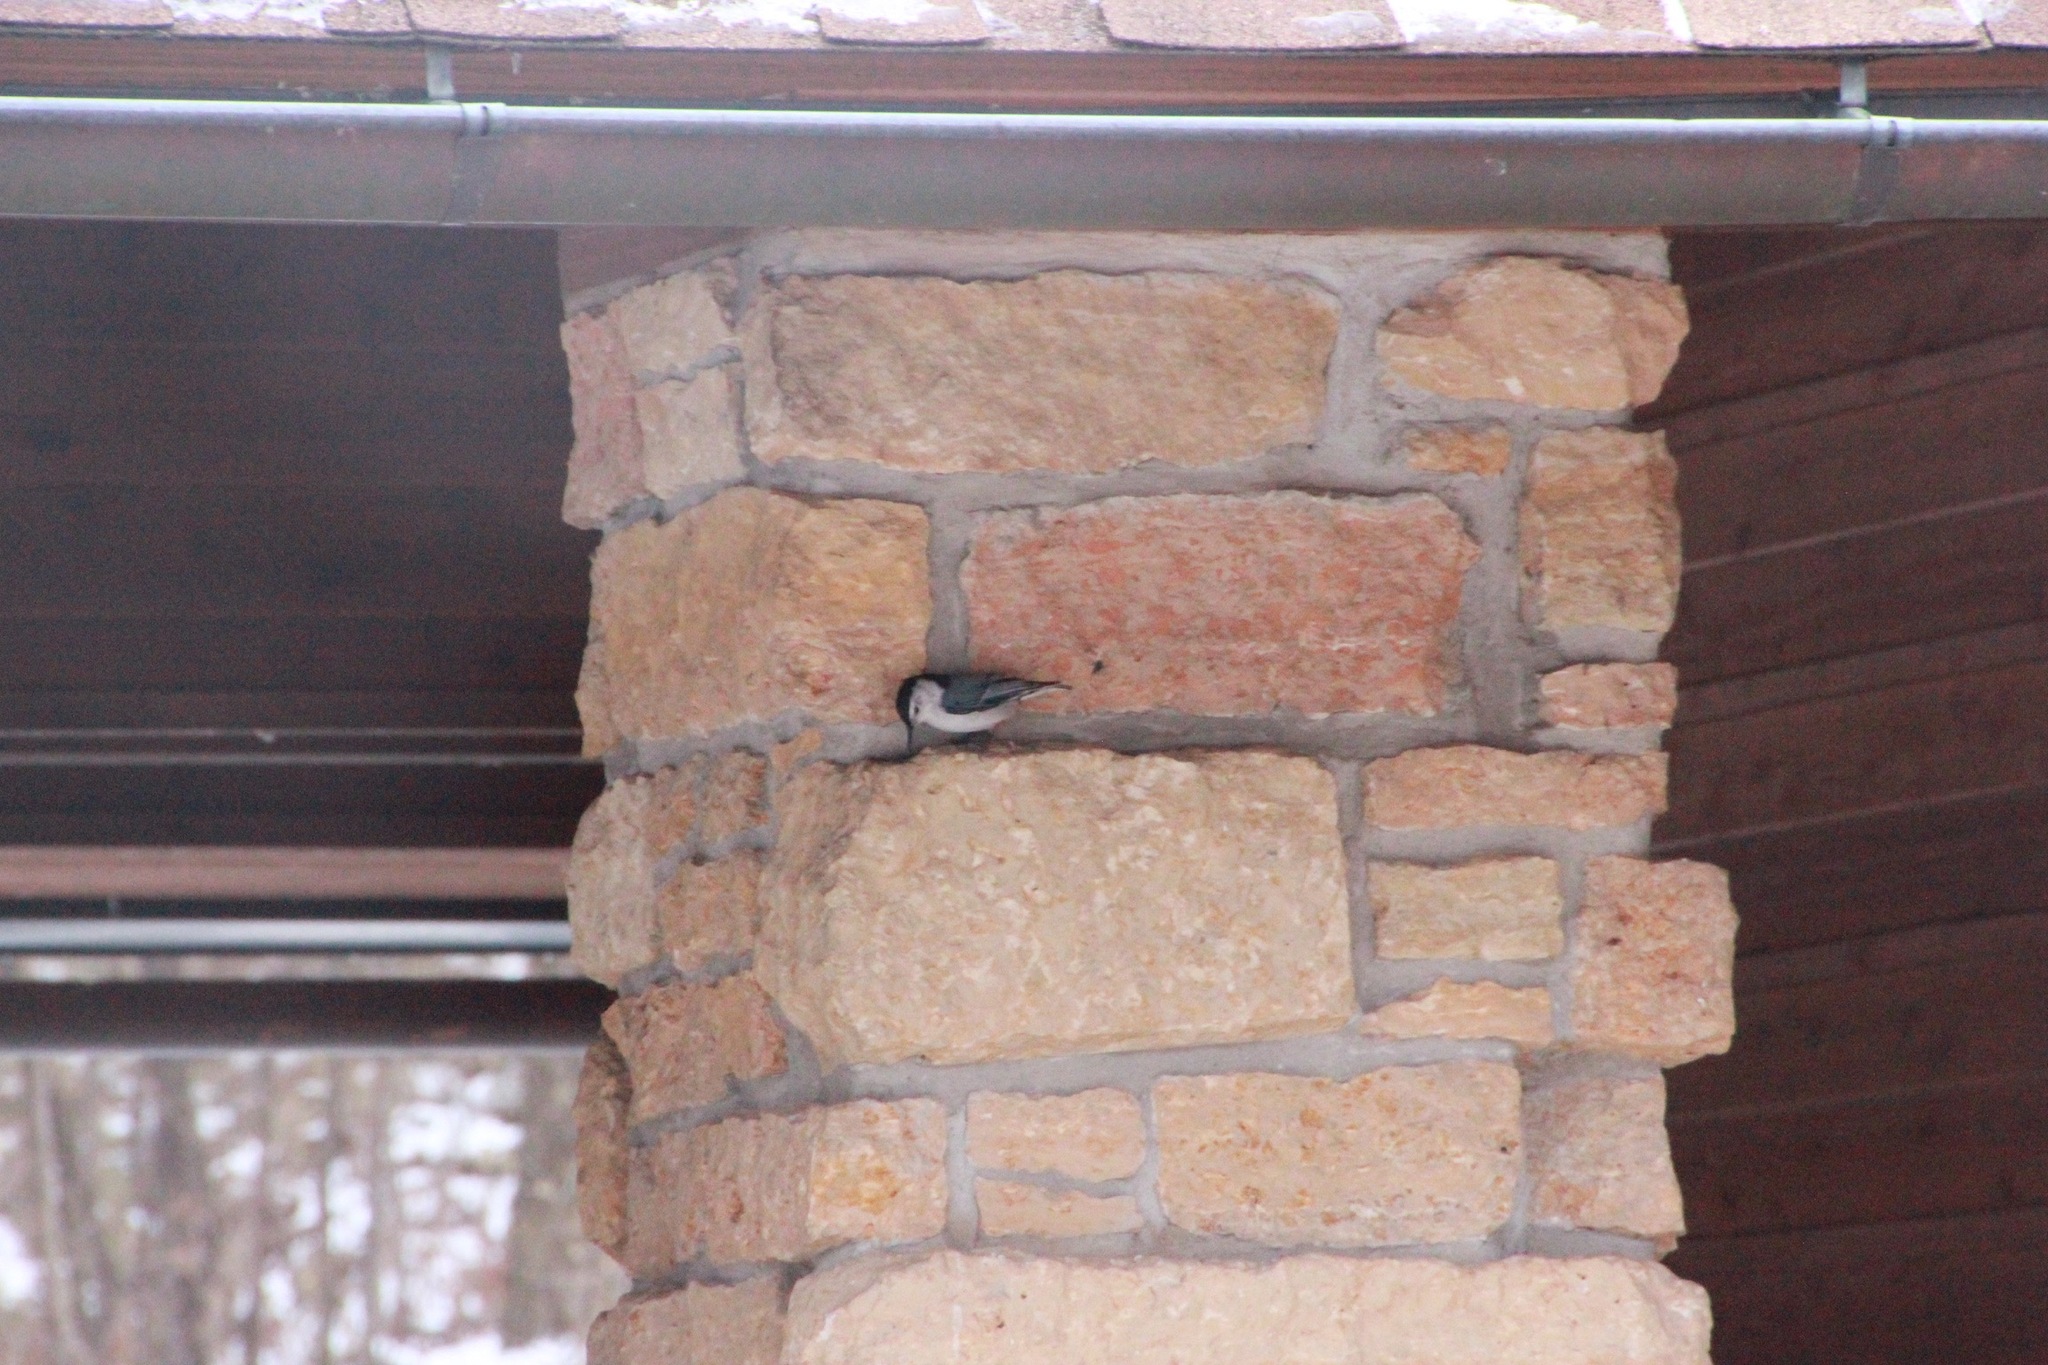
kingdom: Animalia
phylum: Chordata
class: Aves
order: Passeriformes
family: Sittidae
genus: Sitta
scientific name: Sitta carolinensis
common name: White-breasted nuthatch
